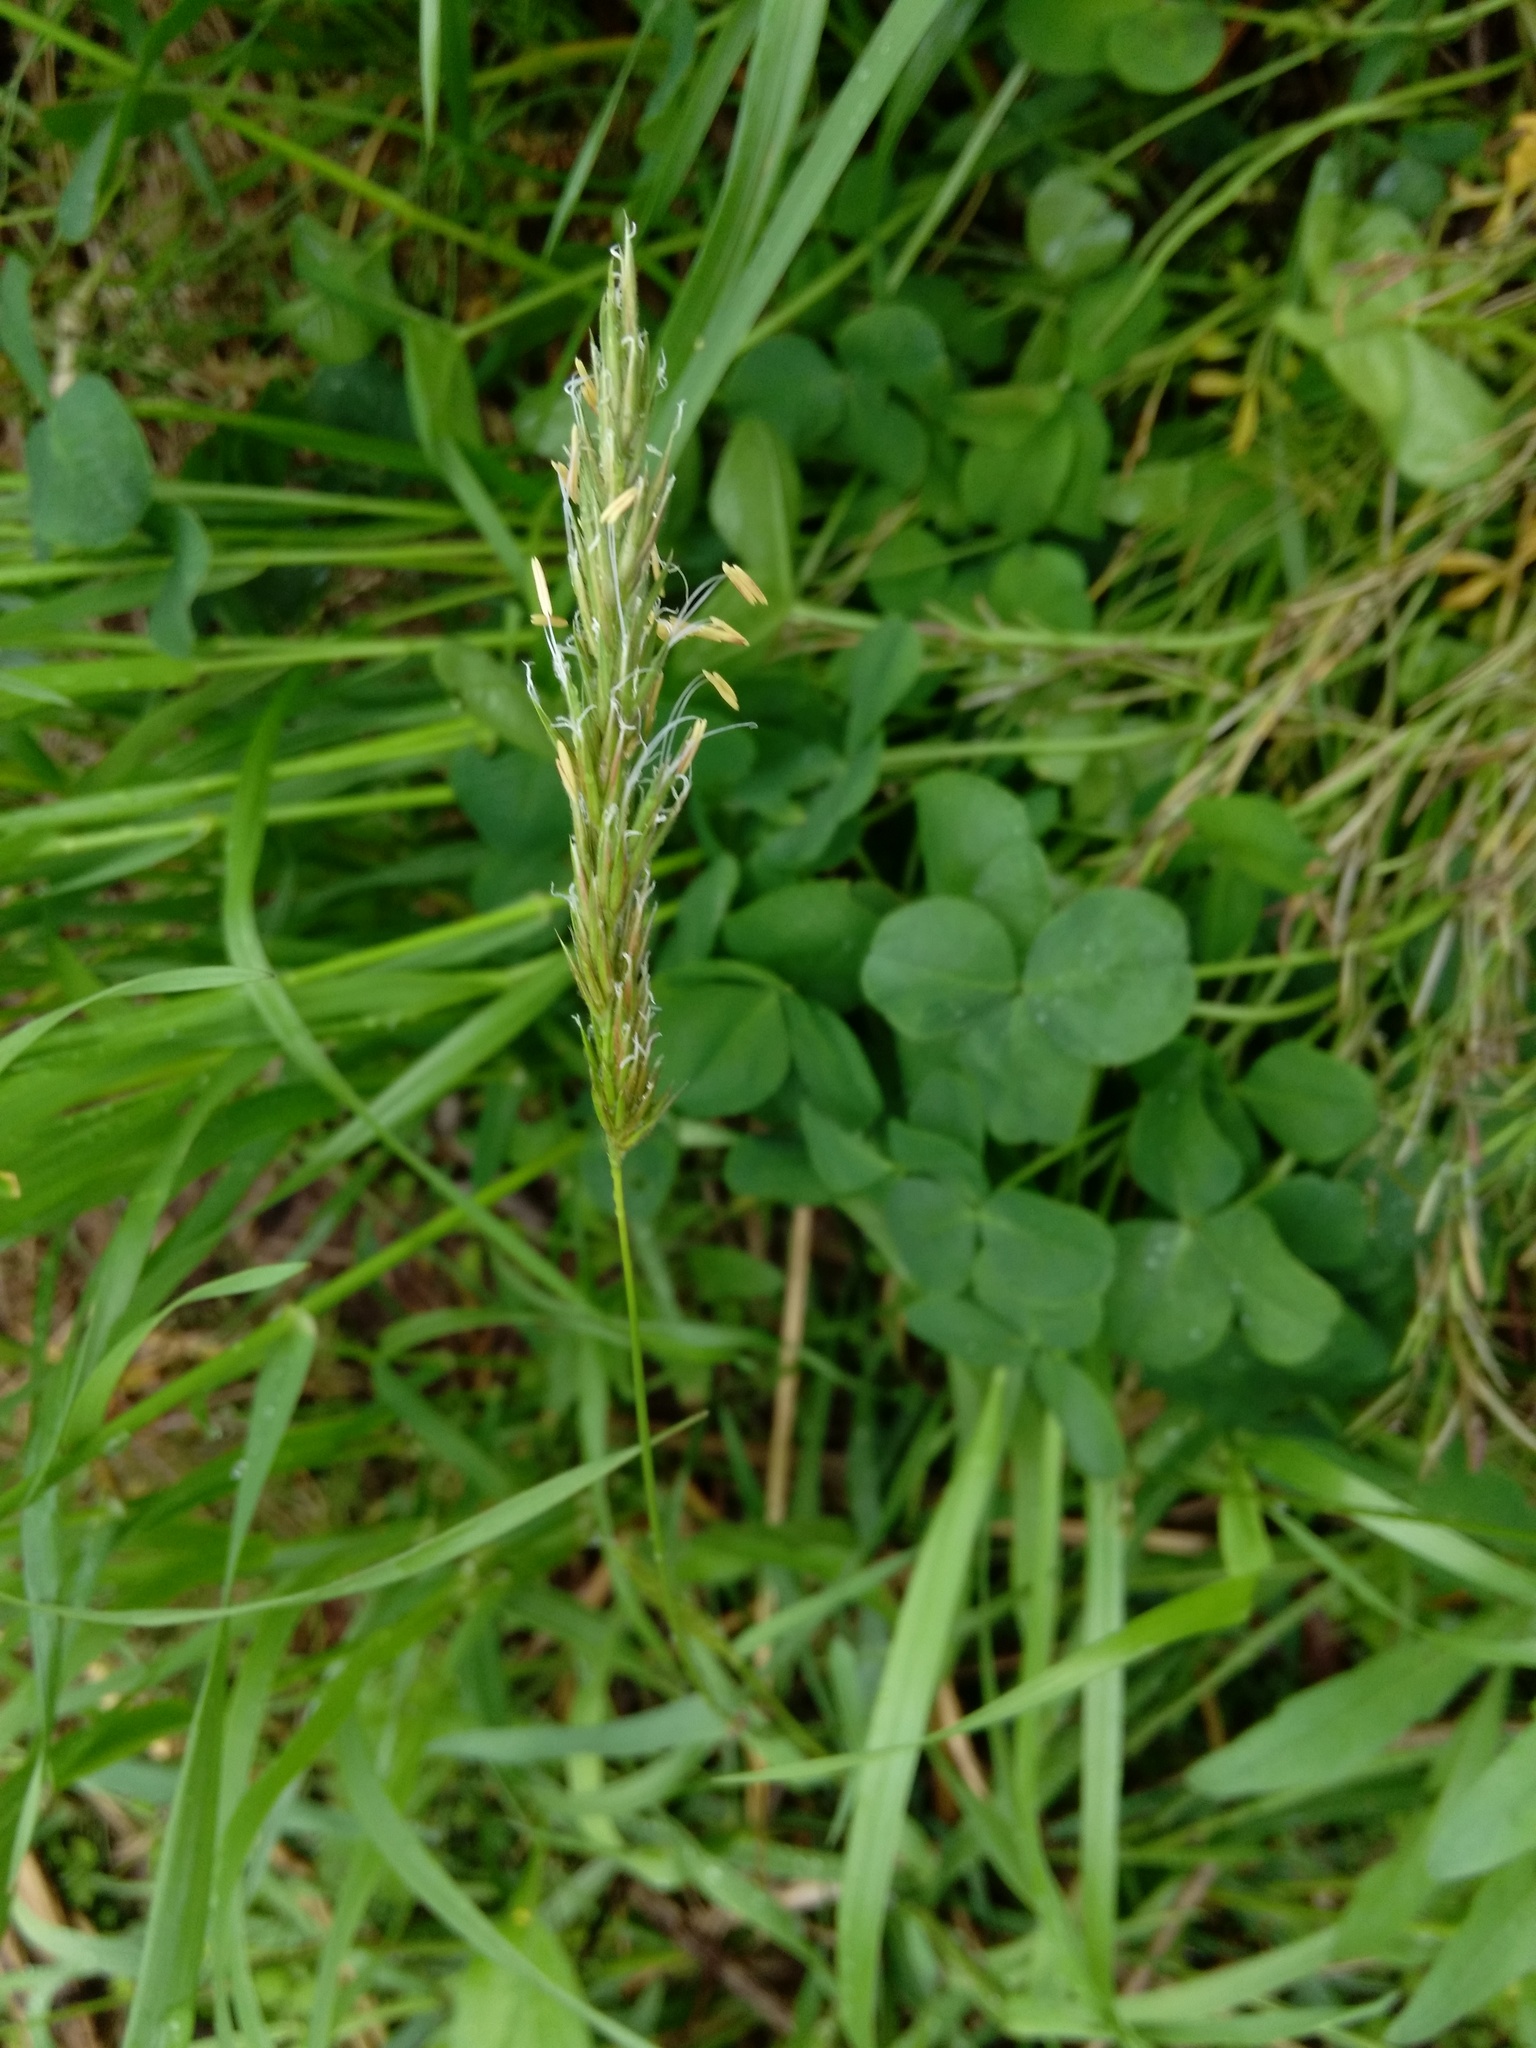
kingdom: Plantae
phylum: Tracheophyta
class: Liliopsida
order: Poales
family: Poaceae
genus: Anthoxanthum
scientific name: Anthoxanthum odoratum
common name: Sweet vernalgrass
